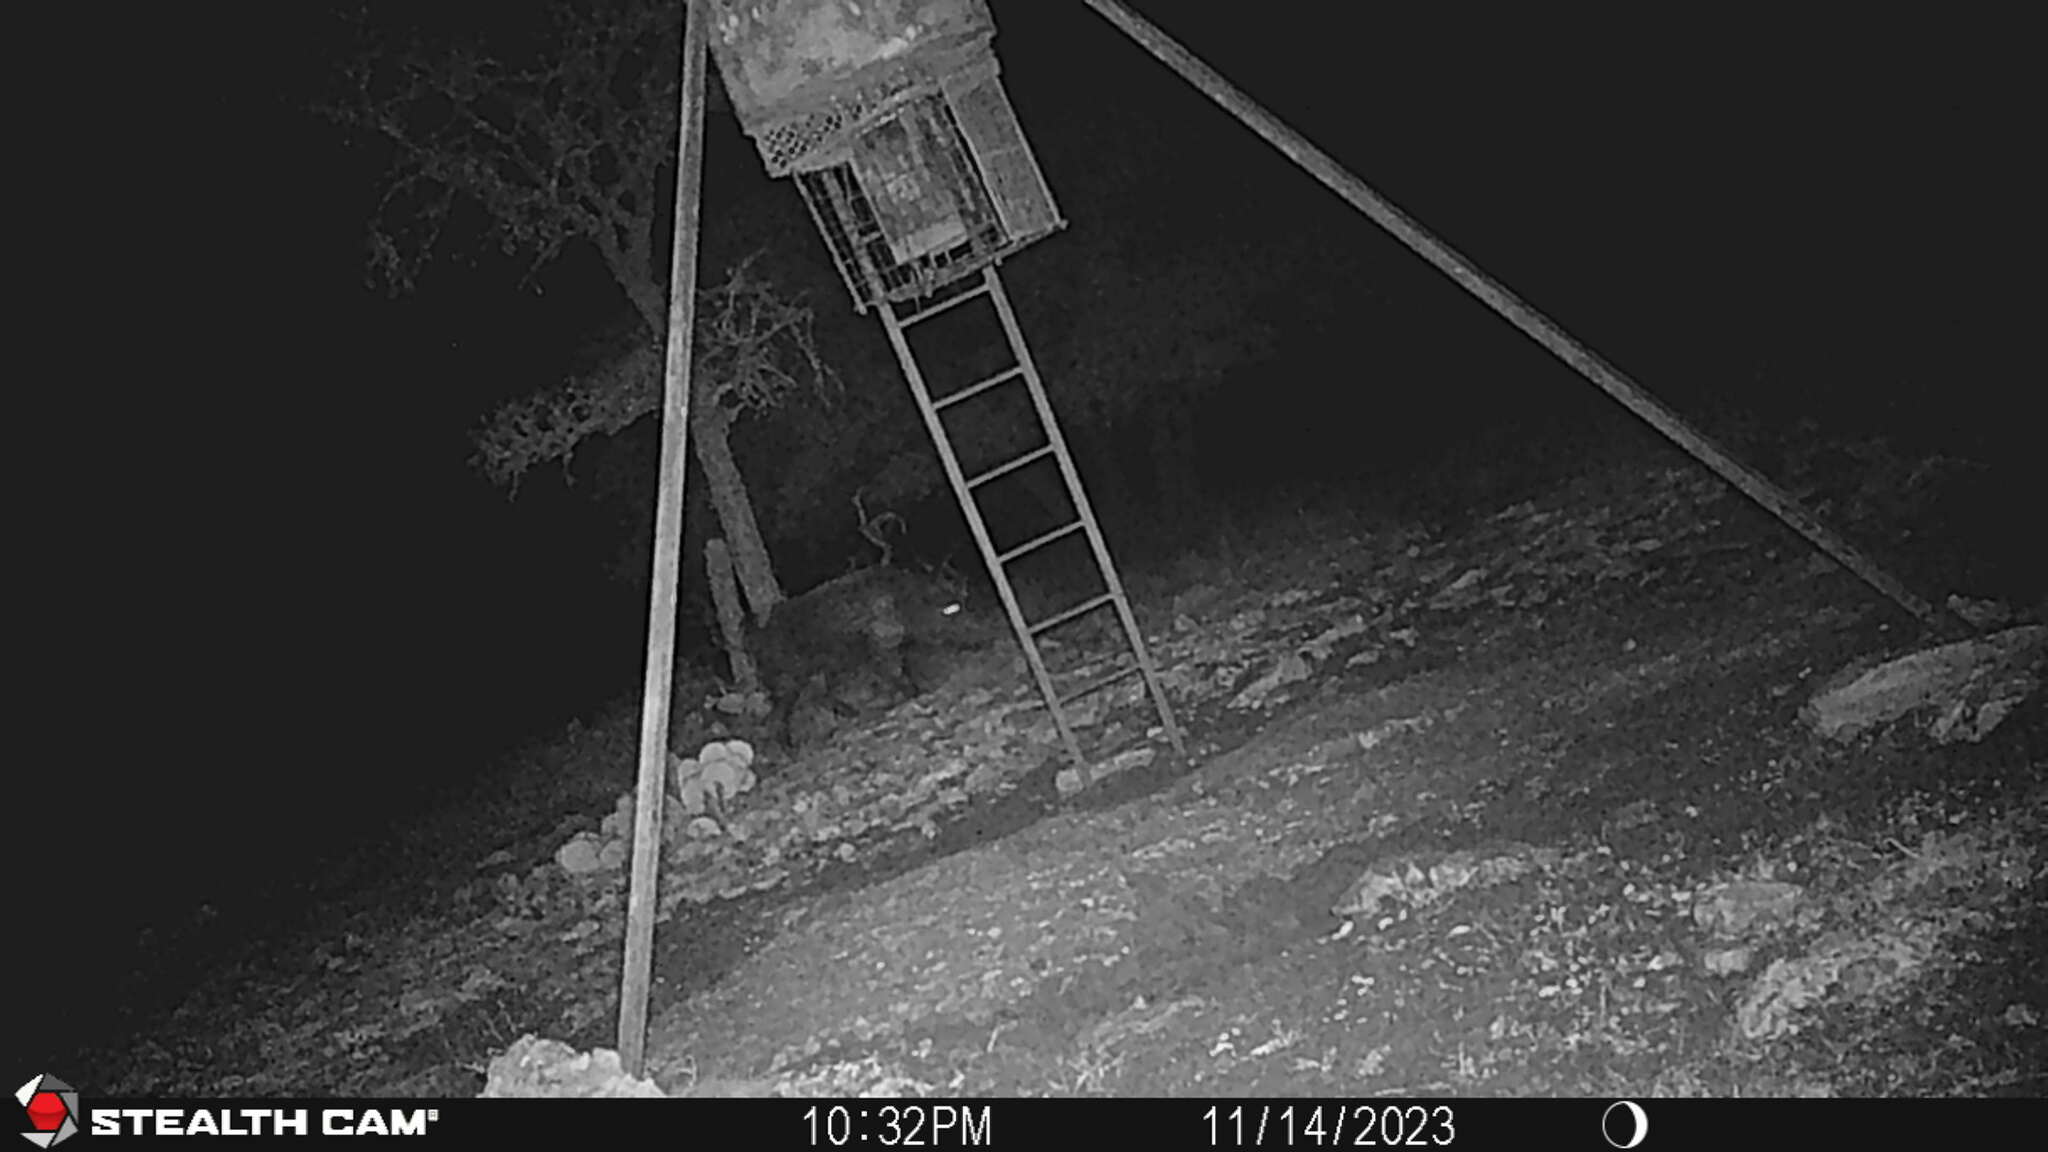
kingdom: Animalia
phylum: Chordata
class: Mammalia
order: Artiodactyla
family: Suidae
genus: Sus
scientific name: Sus scrofa
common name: Wild boar
